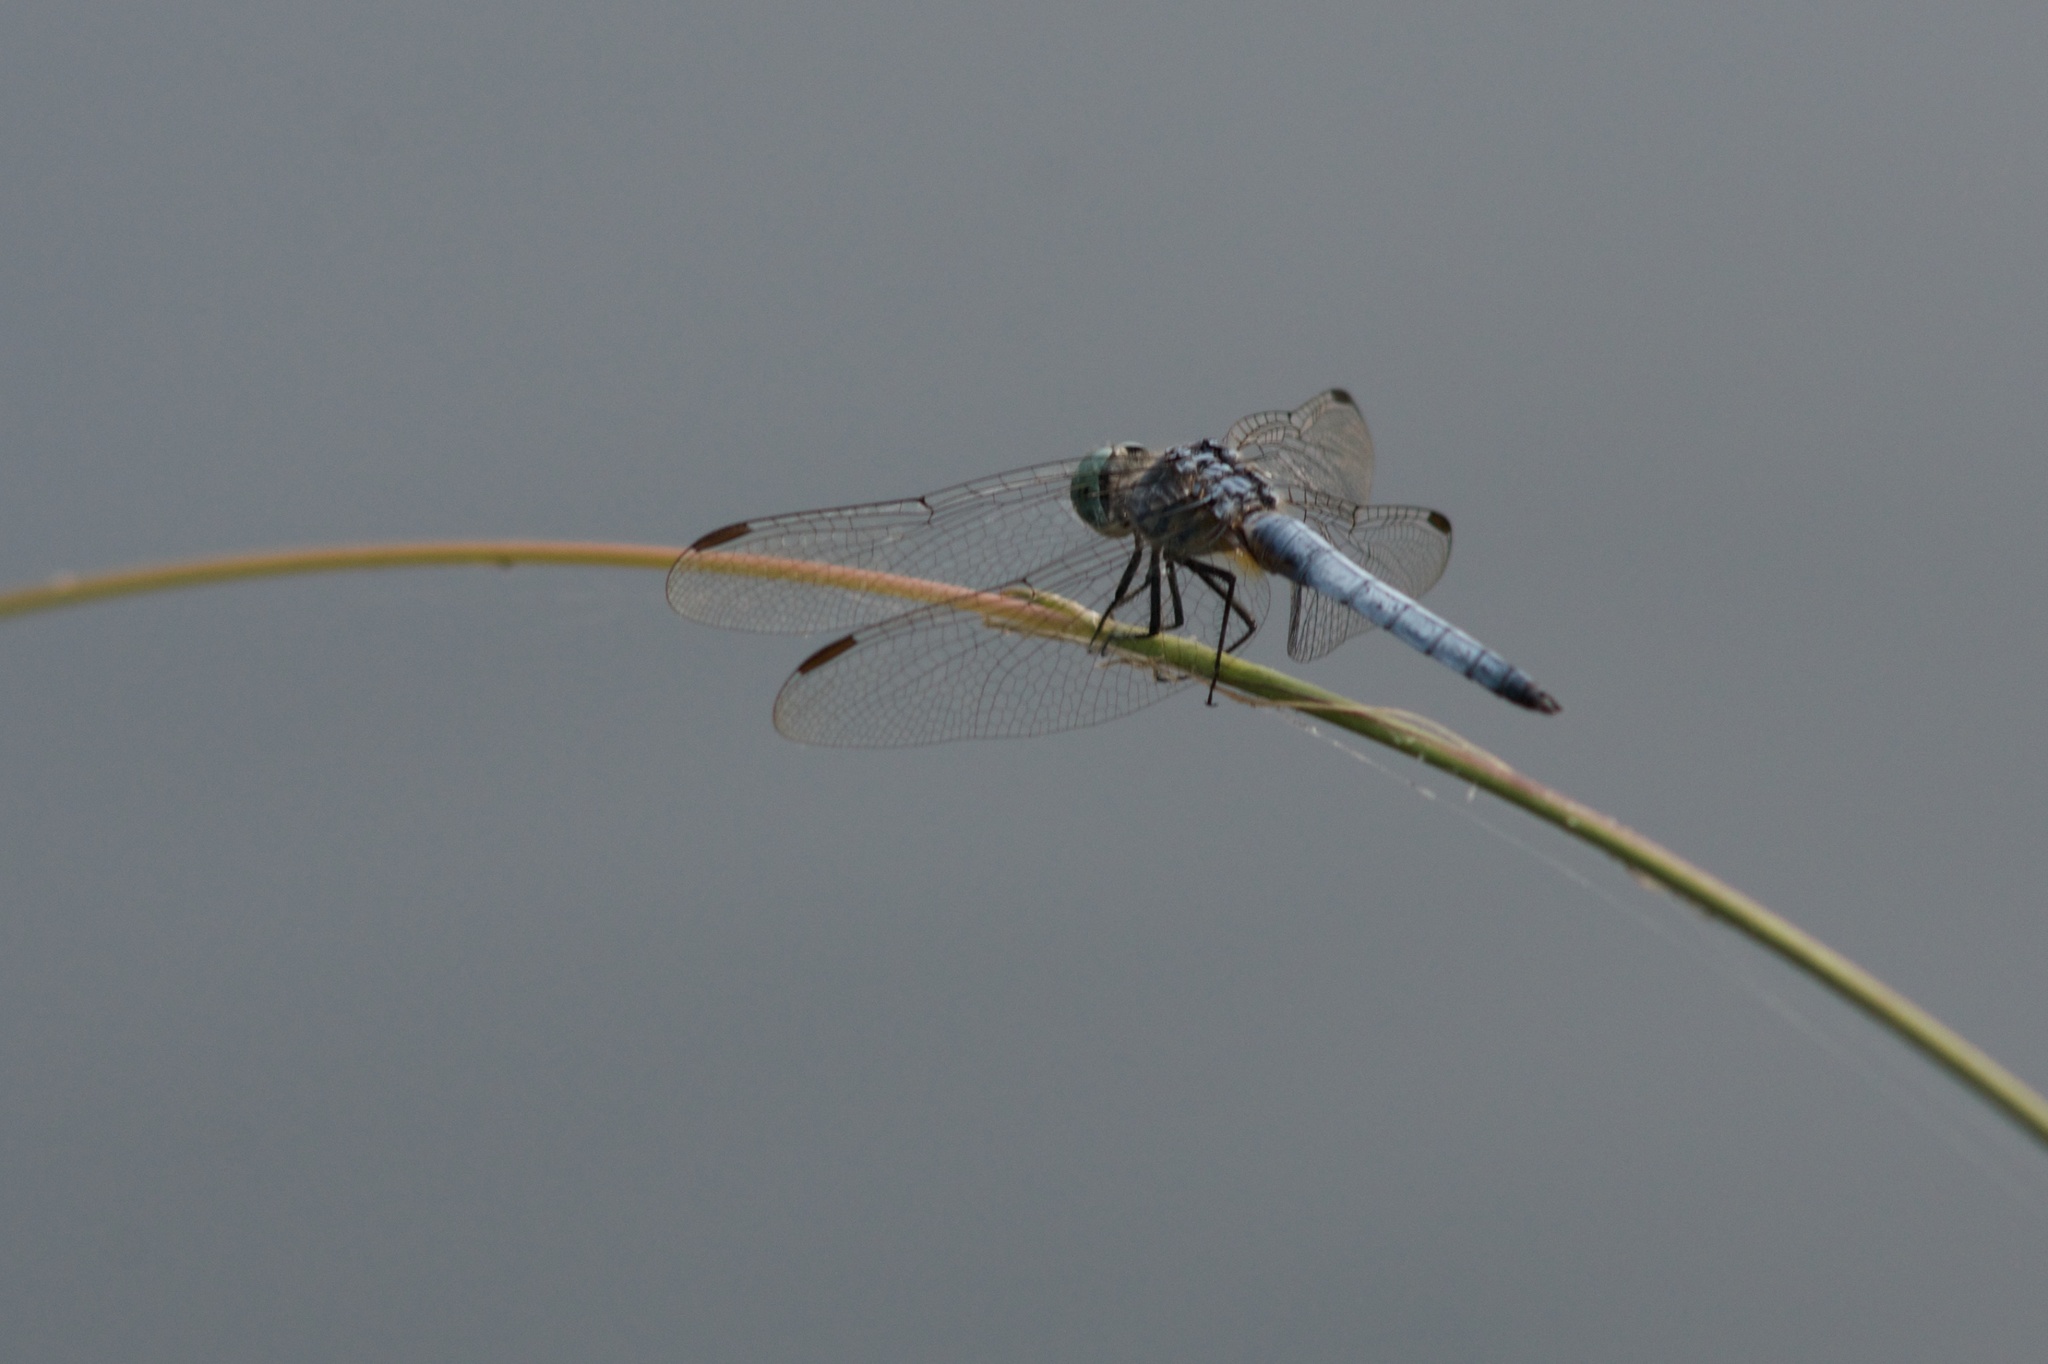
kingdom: Animalia
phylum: Arthropoda
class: Insecta
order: Odonata
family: Libellulidae
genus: Pachydiplax
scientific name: Pachydiplax longipennis
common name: Blue dasher
